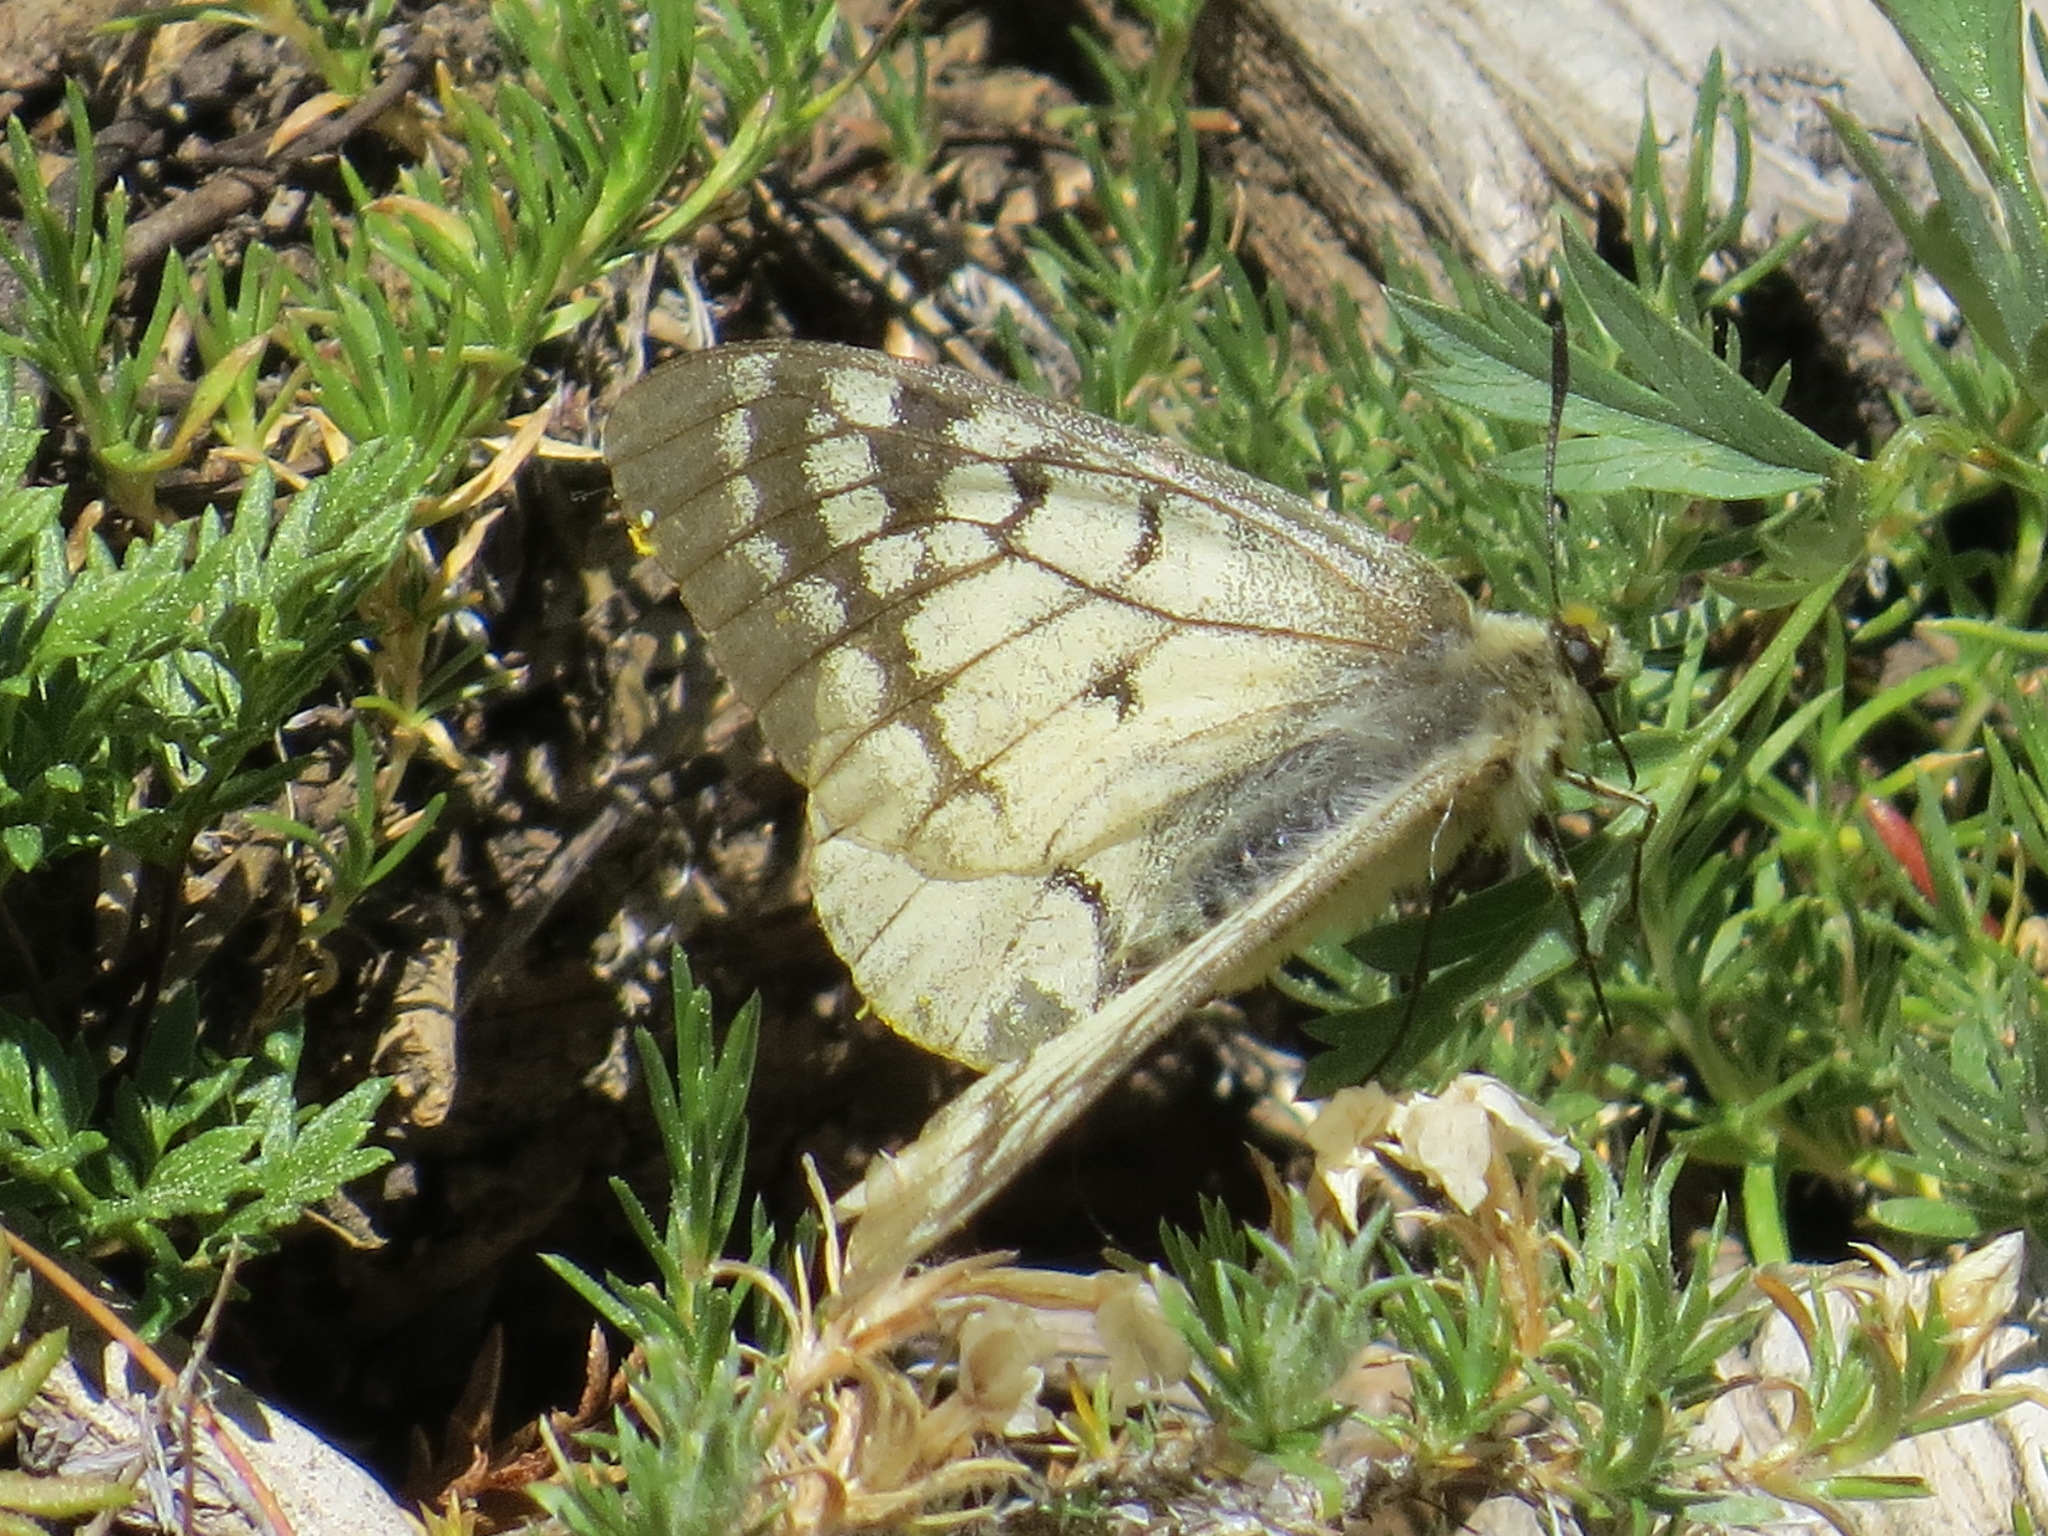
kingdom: Animalia
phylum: Arthropoda
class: Insecta
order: Lepidoptera
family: Papilionidae
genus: Parnassius
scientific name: Parnassius clodius
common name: American apollo
